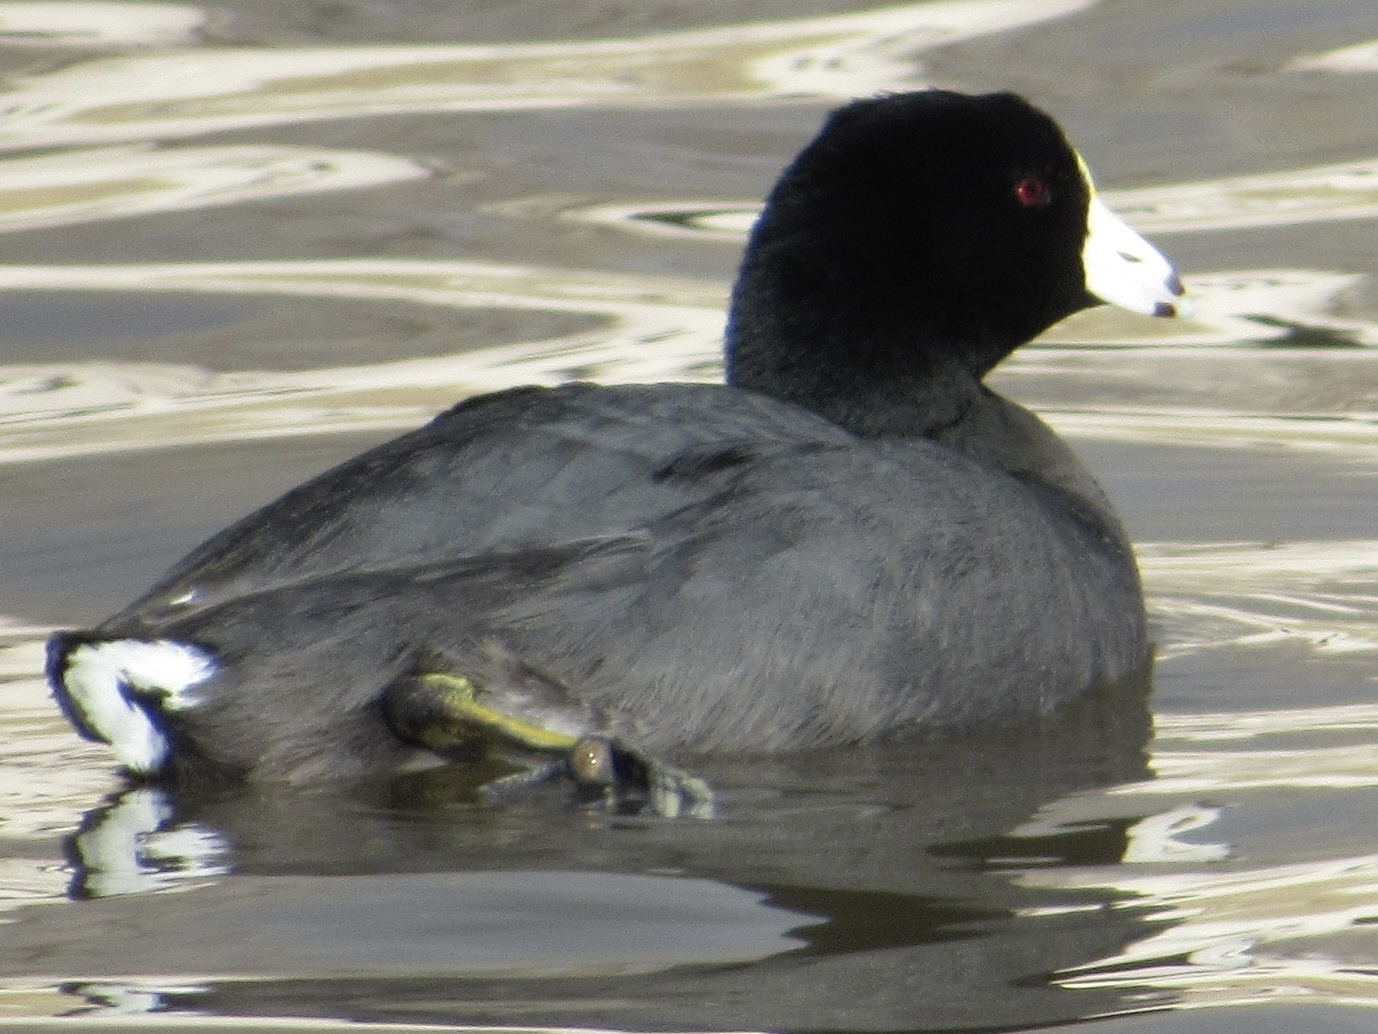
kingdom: Animalia
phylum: Chordata
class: Aves
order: Gruiformes
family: Rallidae
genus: Fulica
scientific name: Fulica americana
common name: American coot
